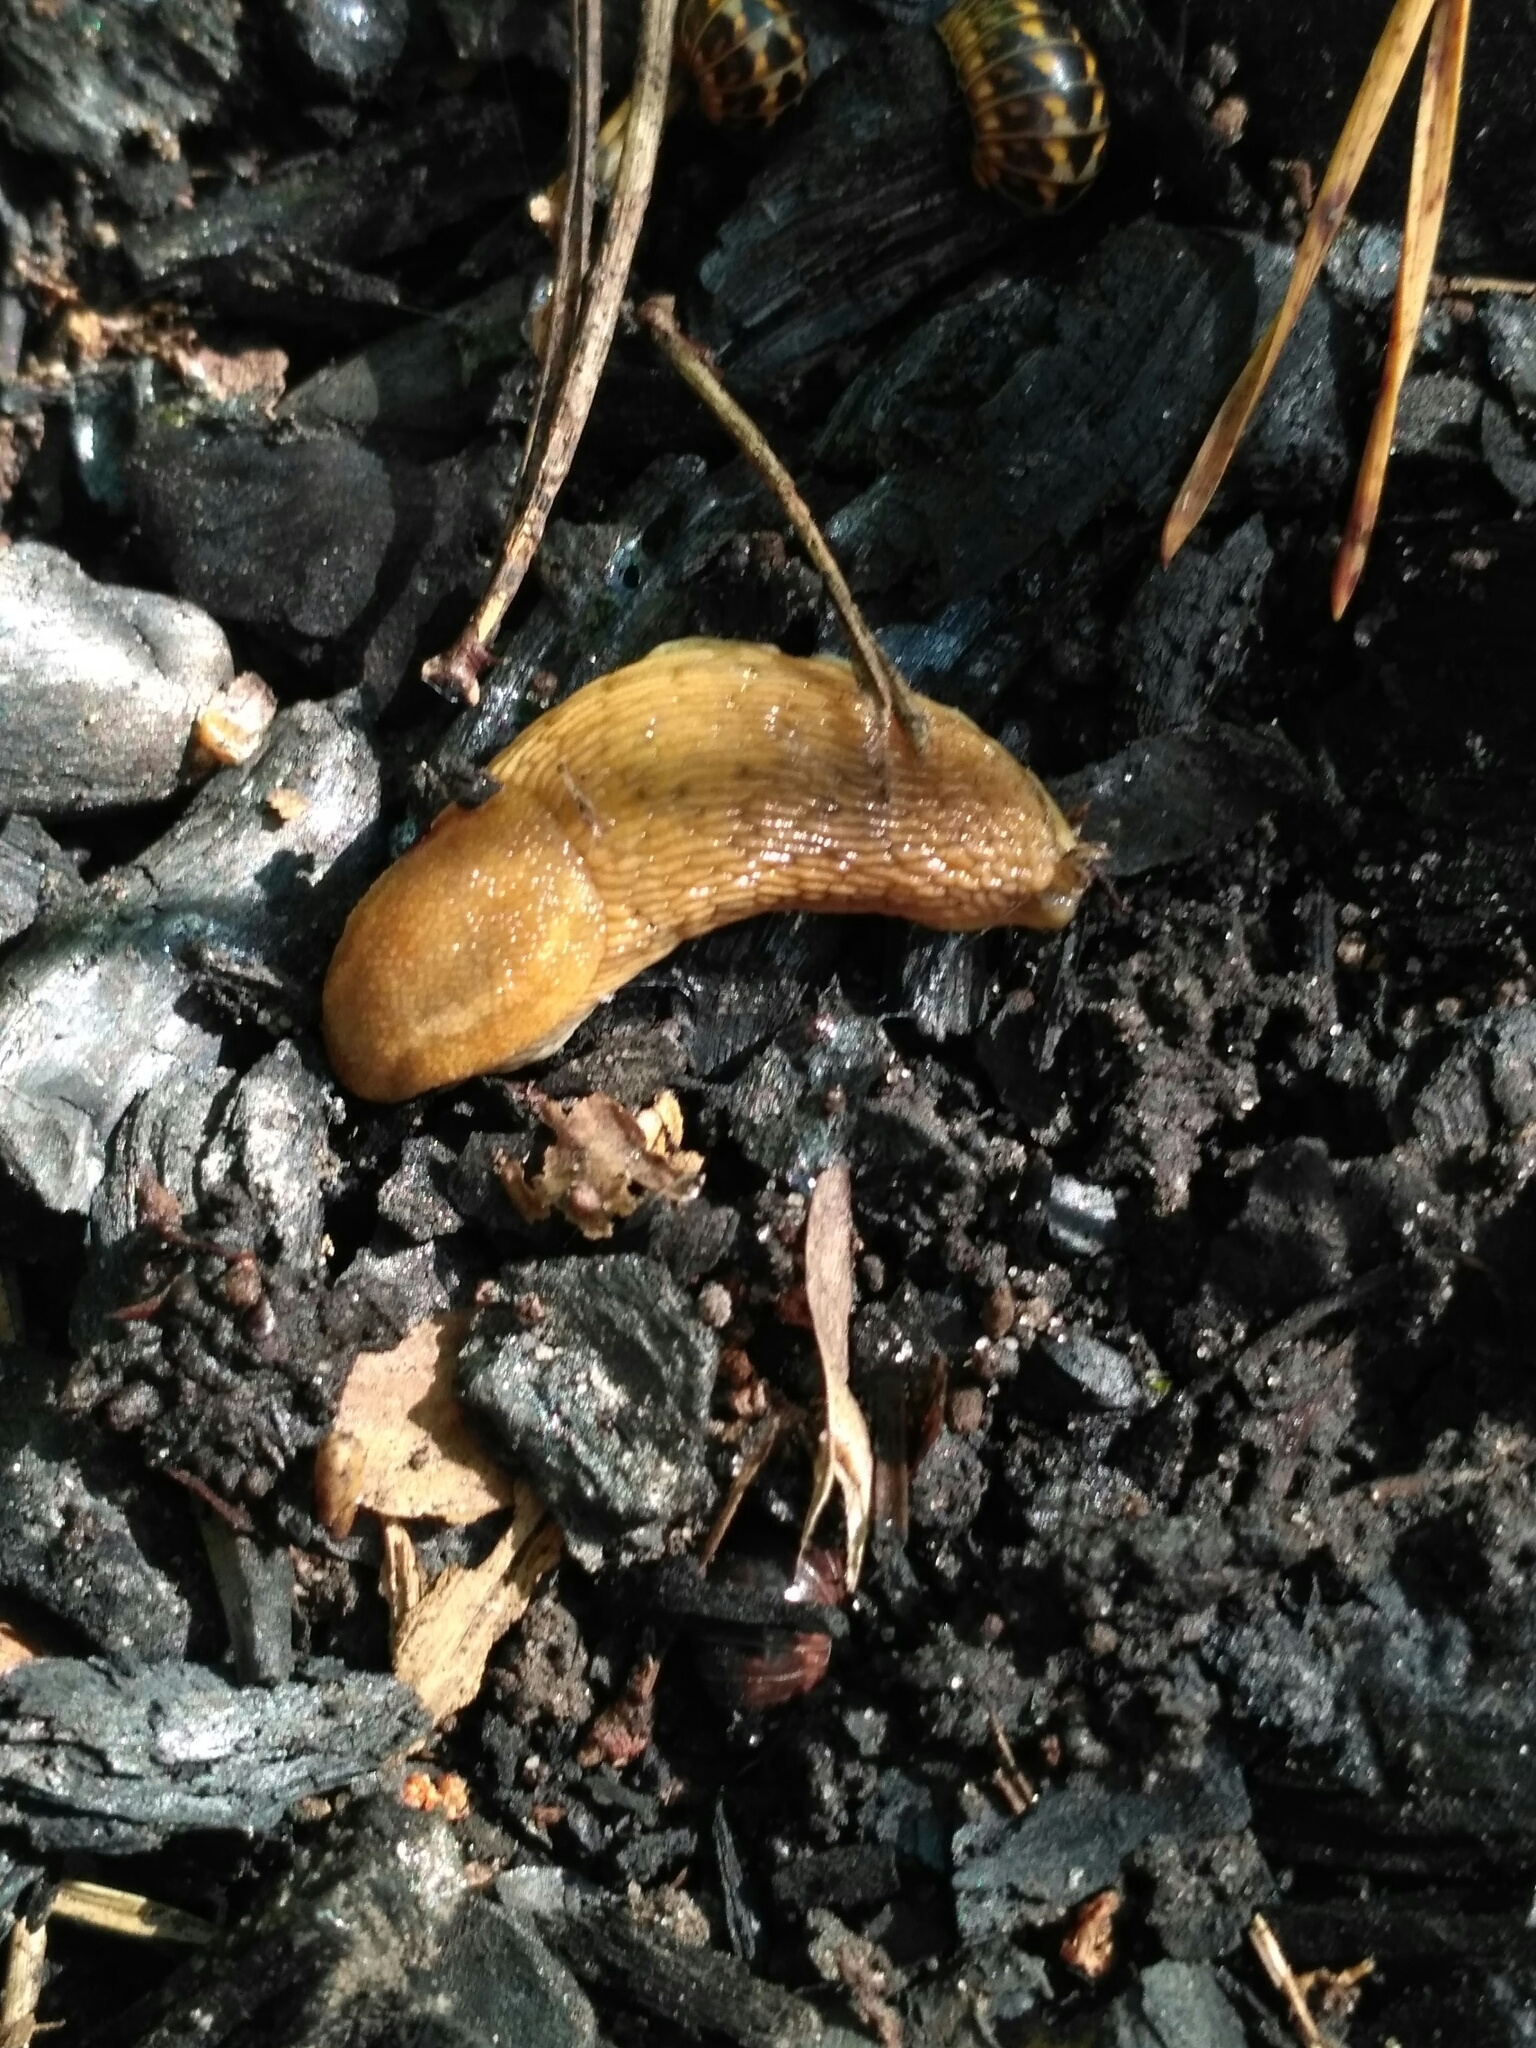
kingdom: Animalia
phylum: Mollusca
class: Gastropoda
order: Stylommatophora
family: Arionidae
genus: Arion
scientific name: Arion fuscus
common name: Northern dusky slug
